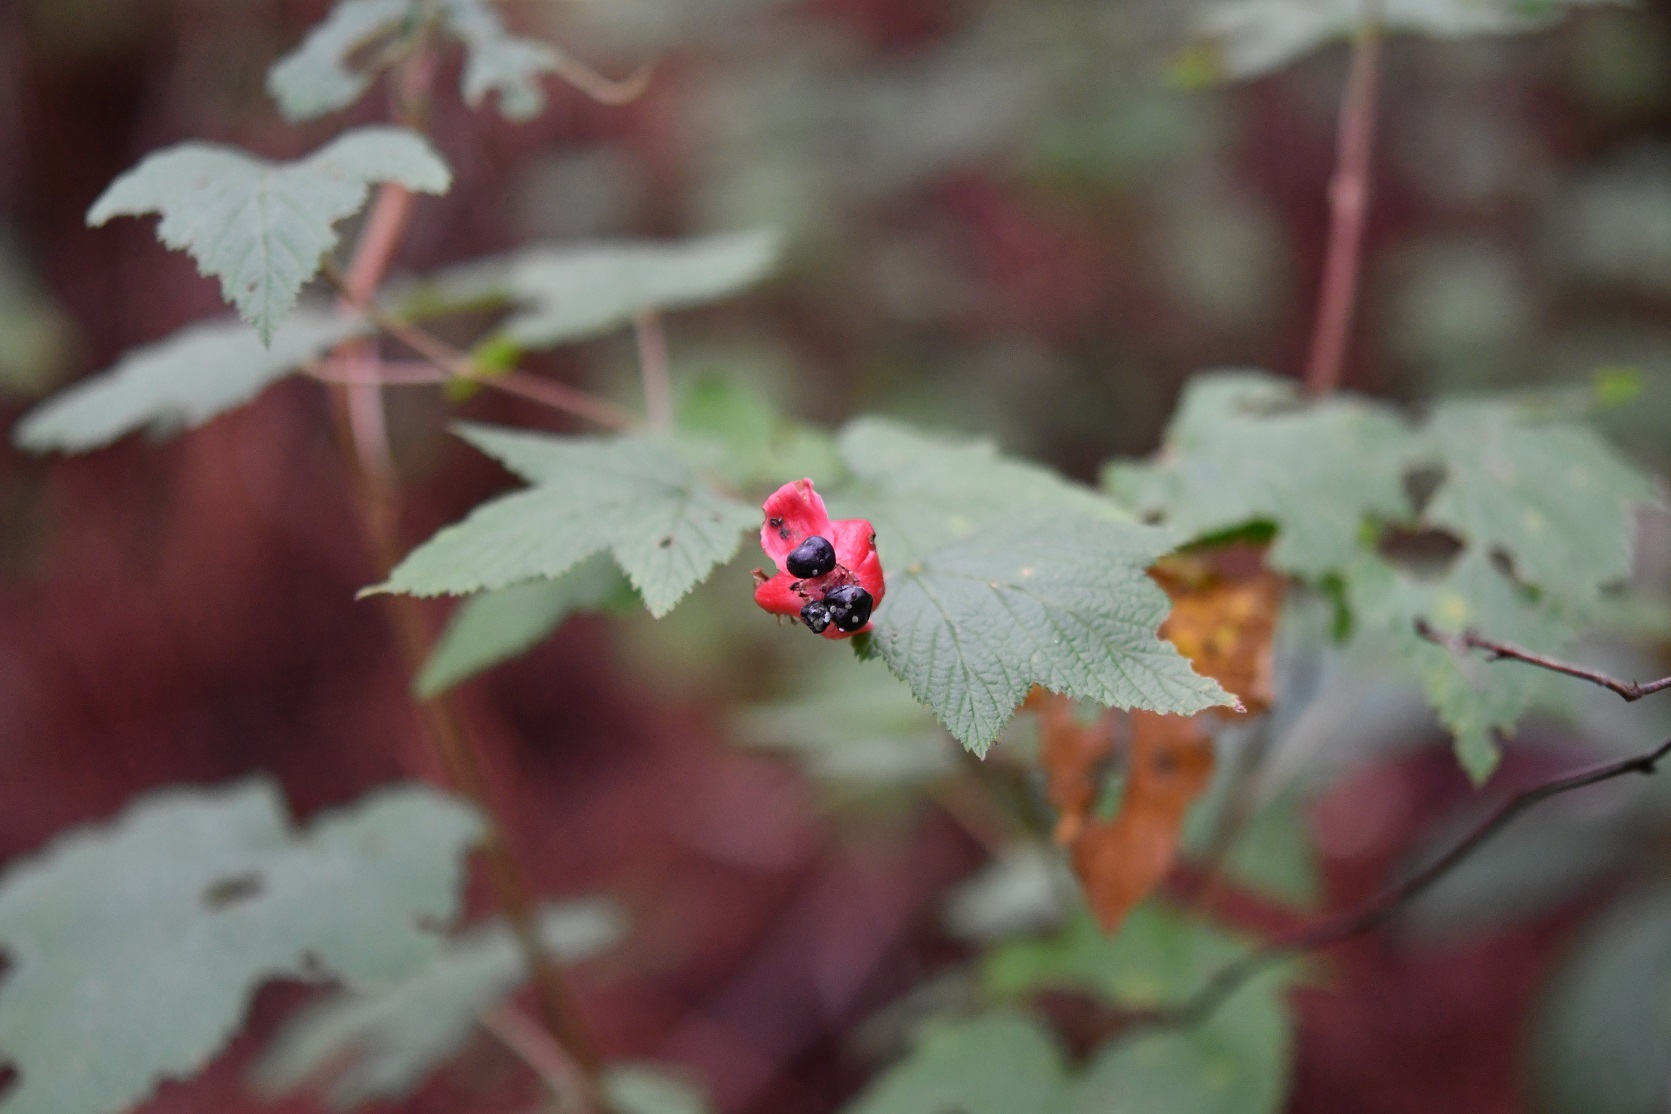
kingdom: Plantae
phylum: Tracheophyta
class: Magnoliopsida
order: Rosales
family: Rosaceae
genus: Rubus
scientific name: Rubus trilobus
